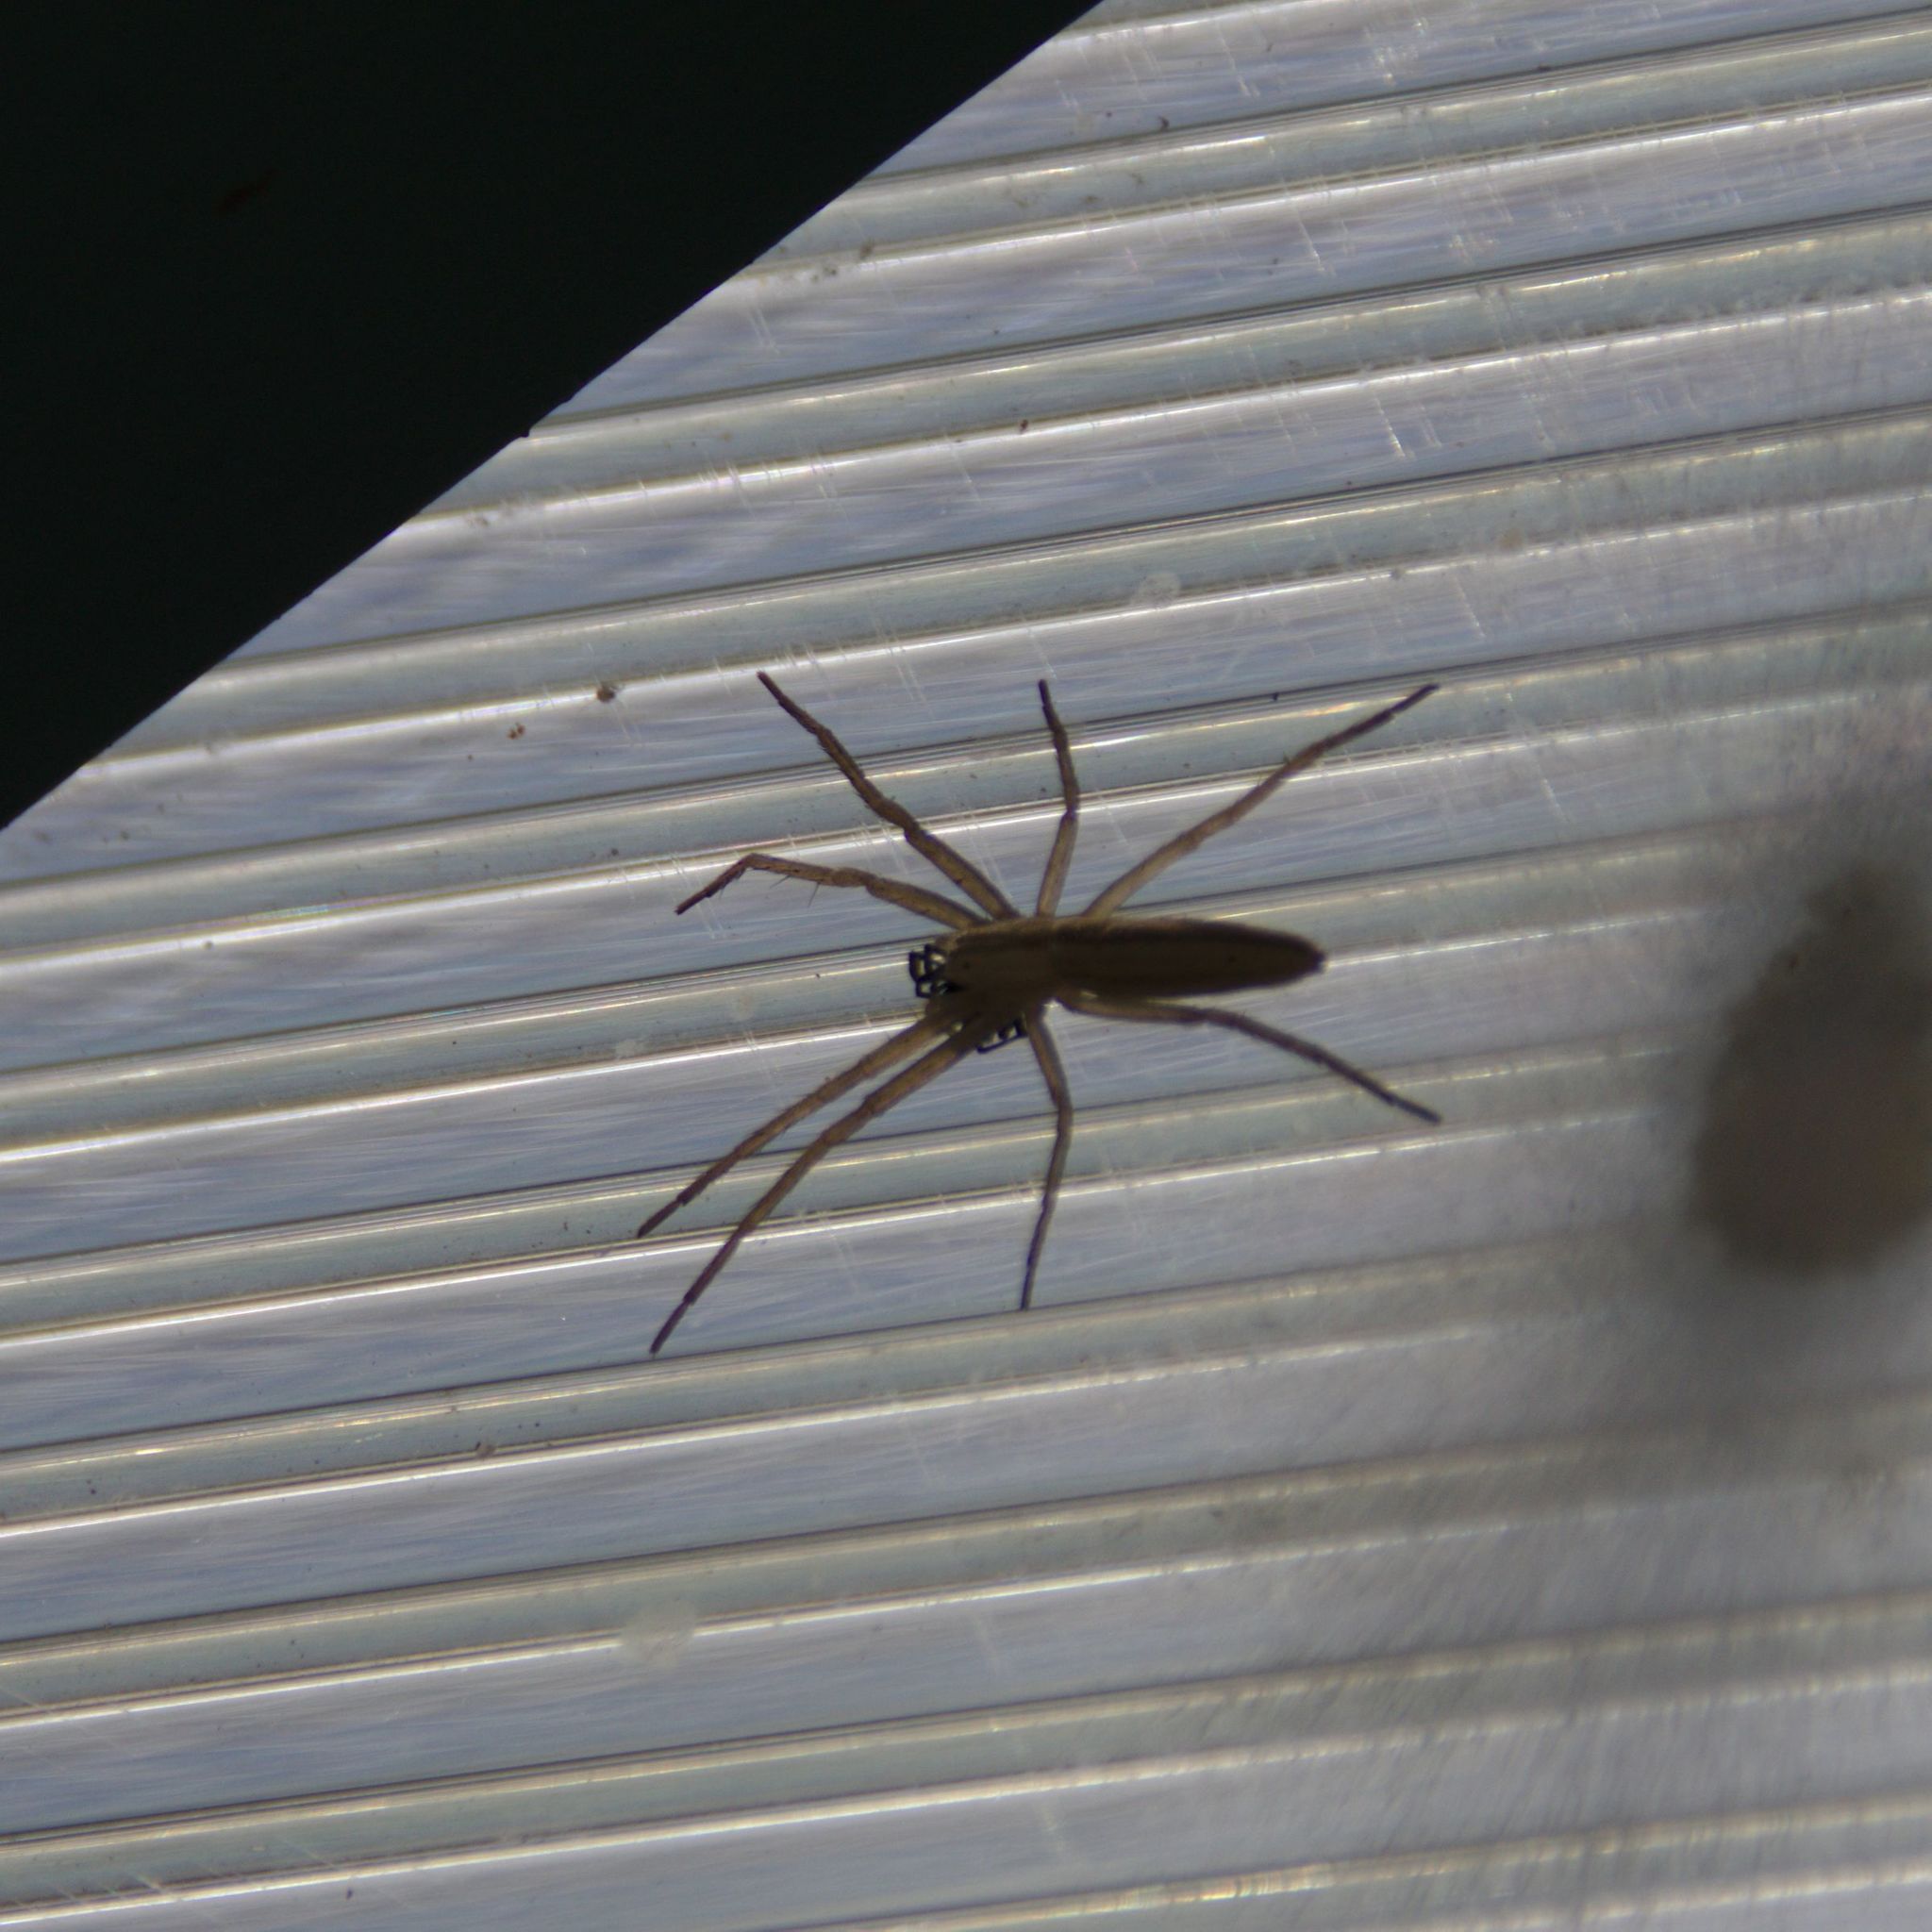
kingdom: Animalia
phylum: Arthropoda
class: Arachnida
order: Araneae
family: Philodromidae
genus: Tibellus
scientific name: Tibellus
